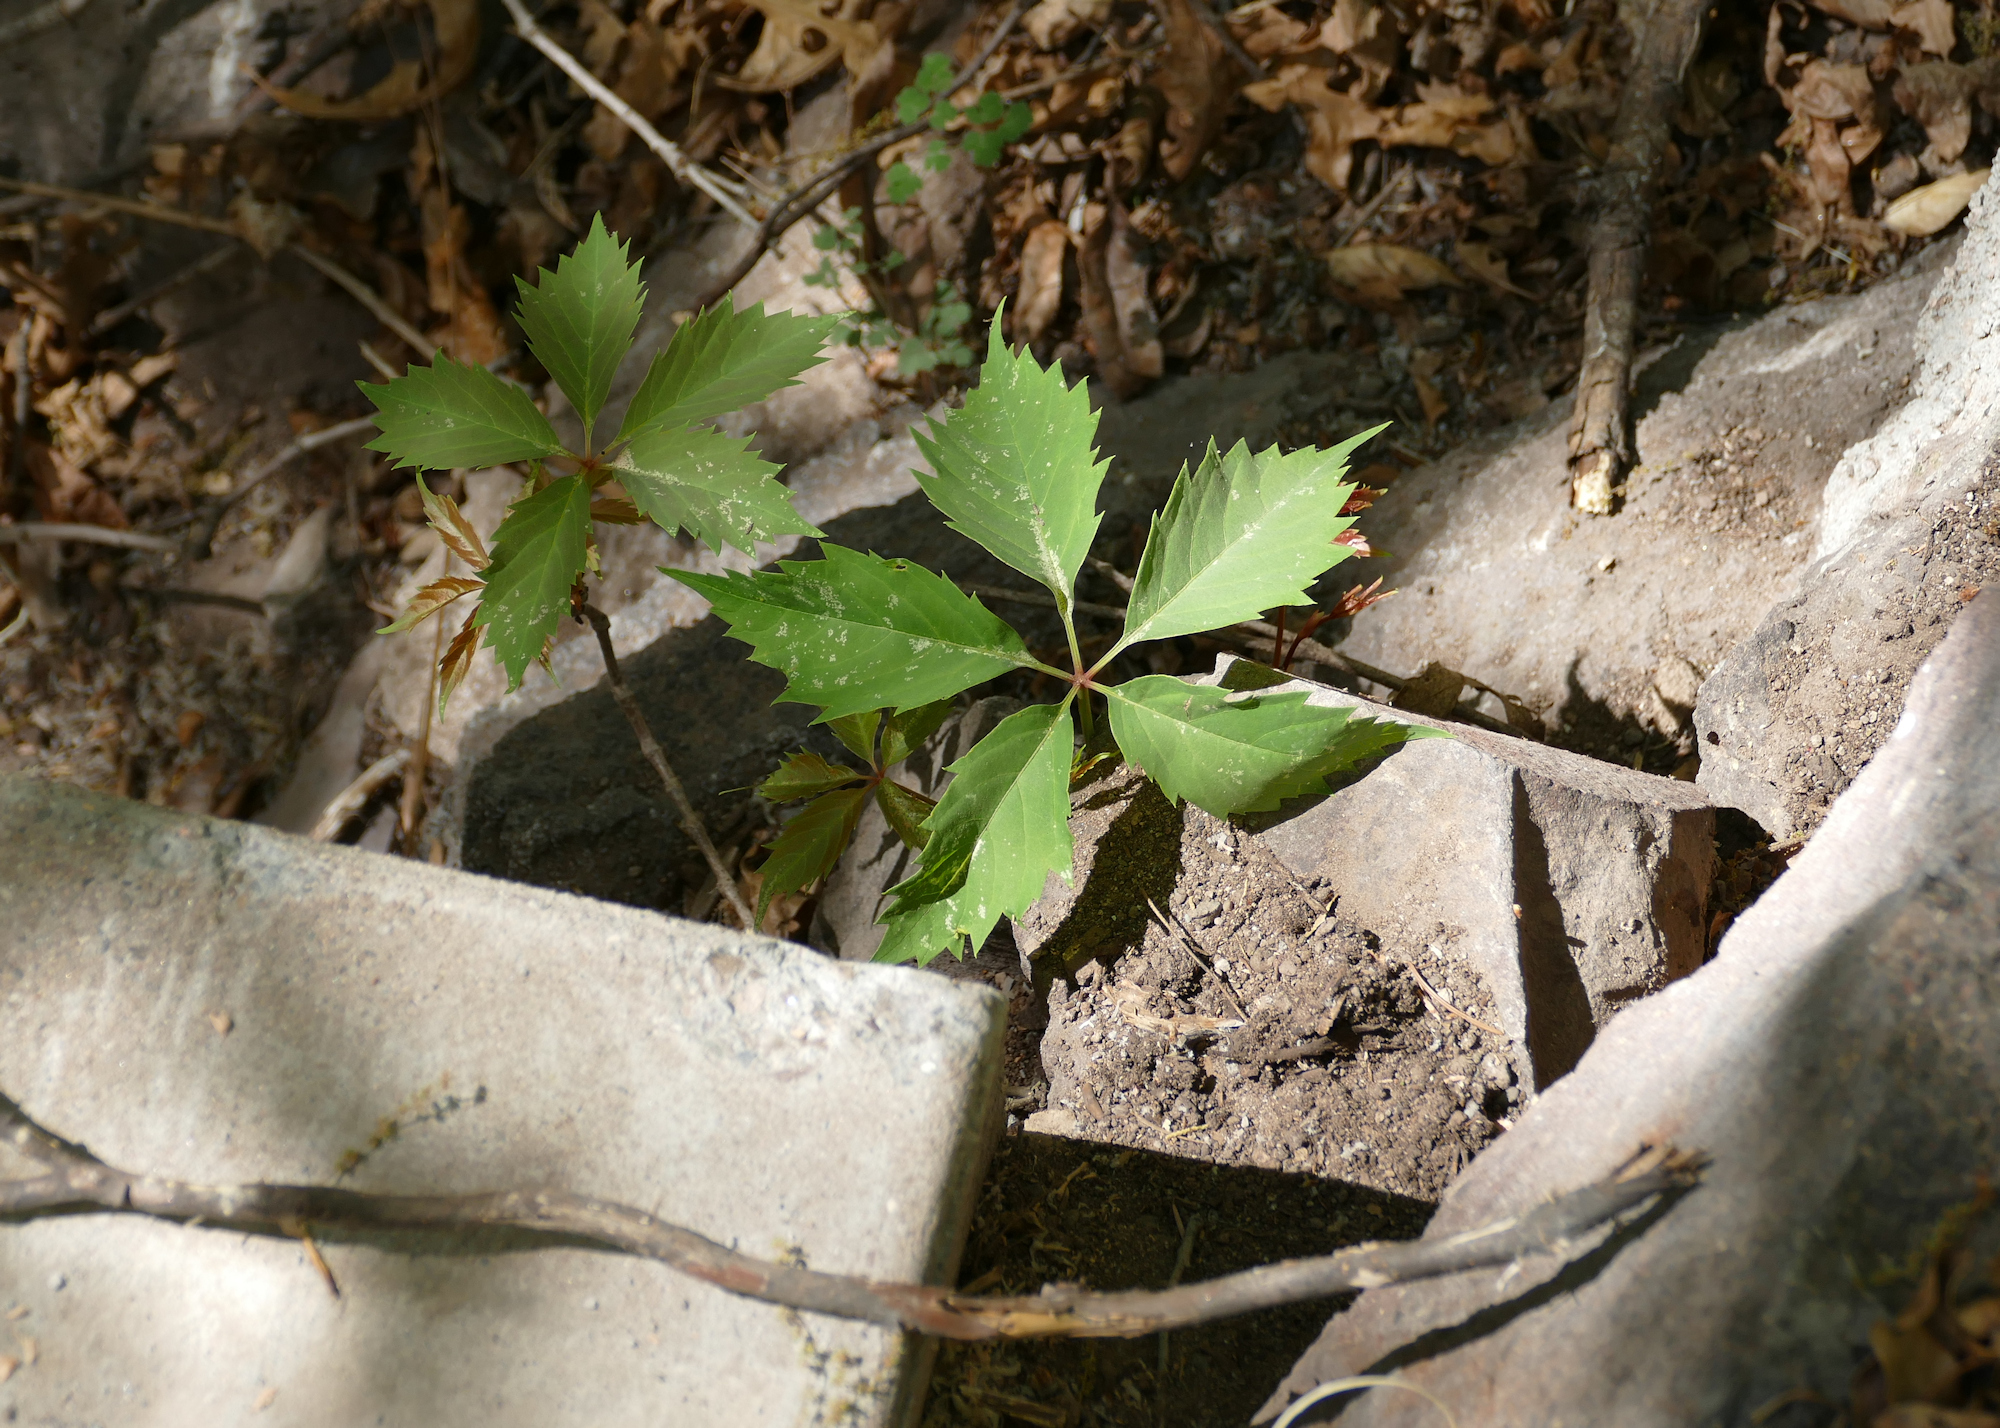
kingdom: Plantae
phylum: Tracheophyta
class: Magnoliopsida
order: Vitales
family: Vitaceae
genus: Parthenocissus
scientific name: Parthenocissus quinquefolia
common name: Virginia-creeper
